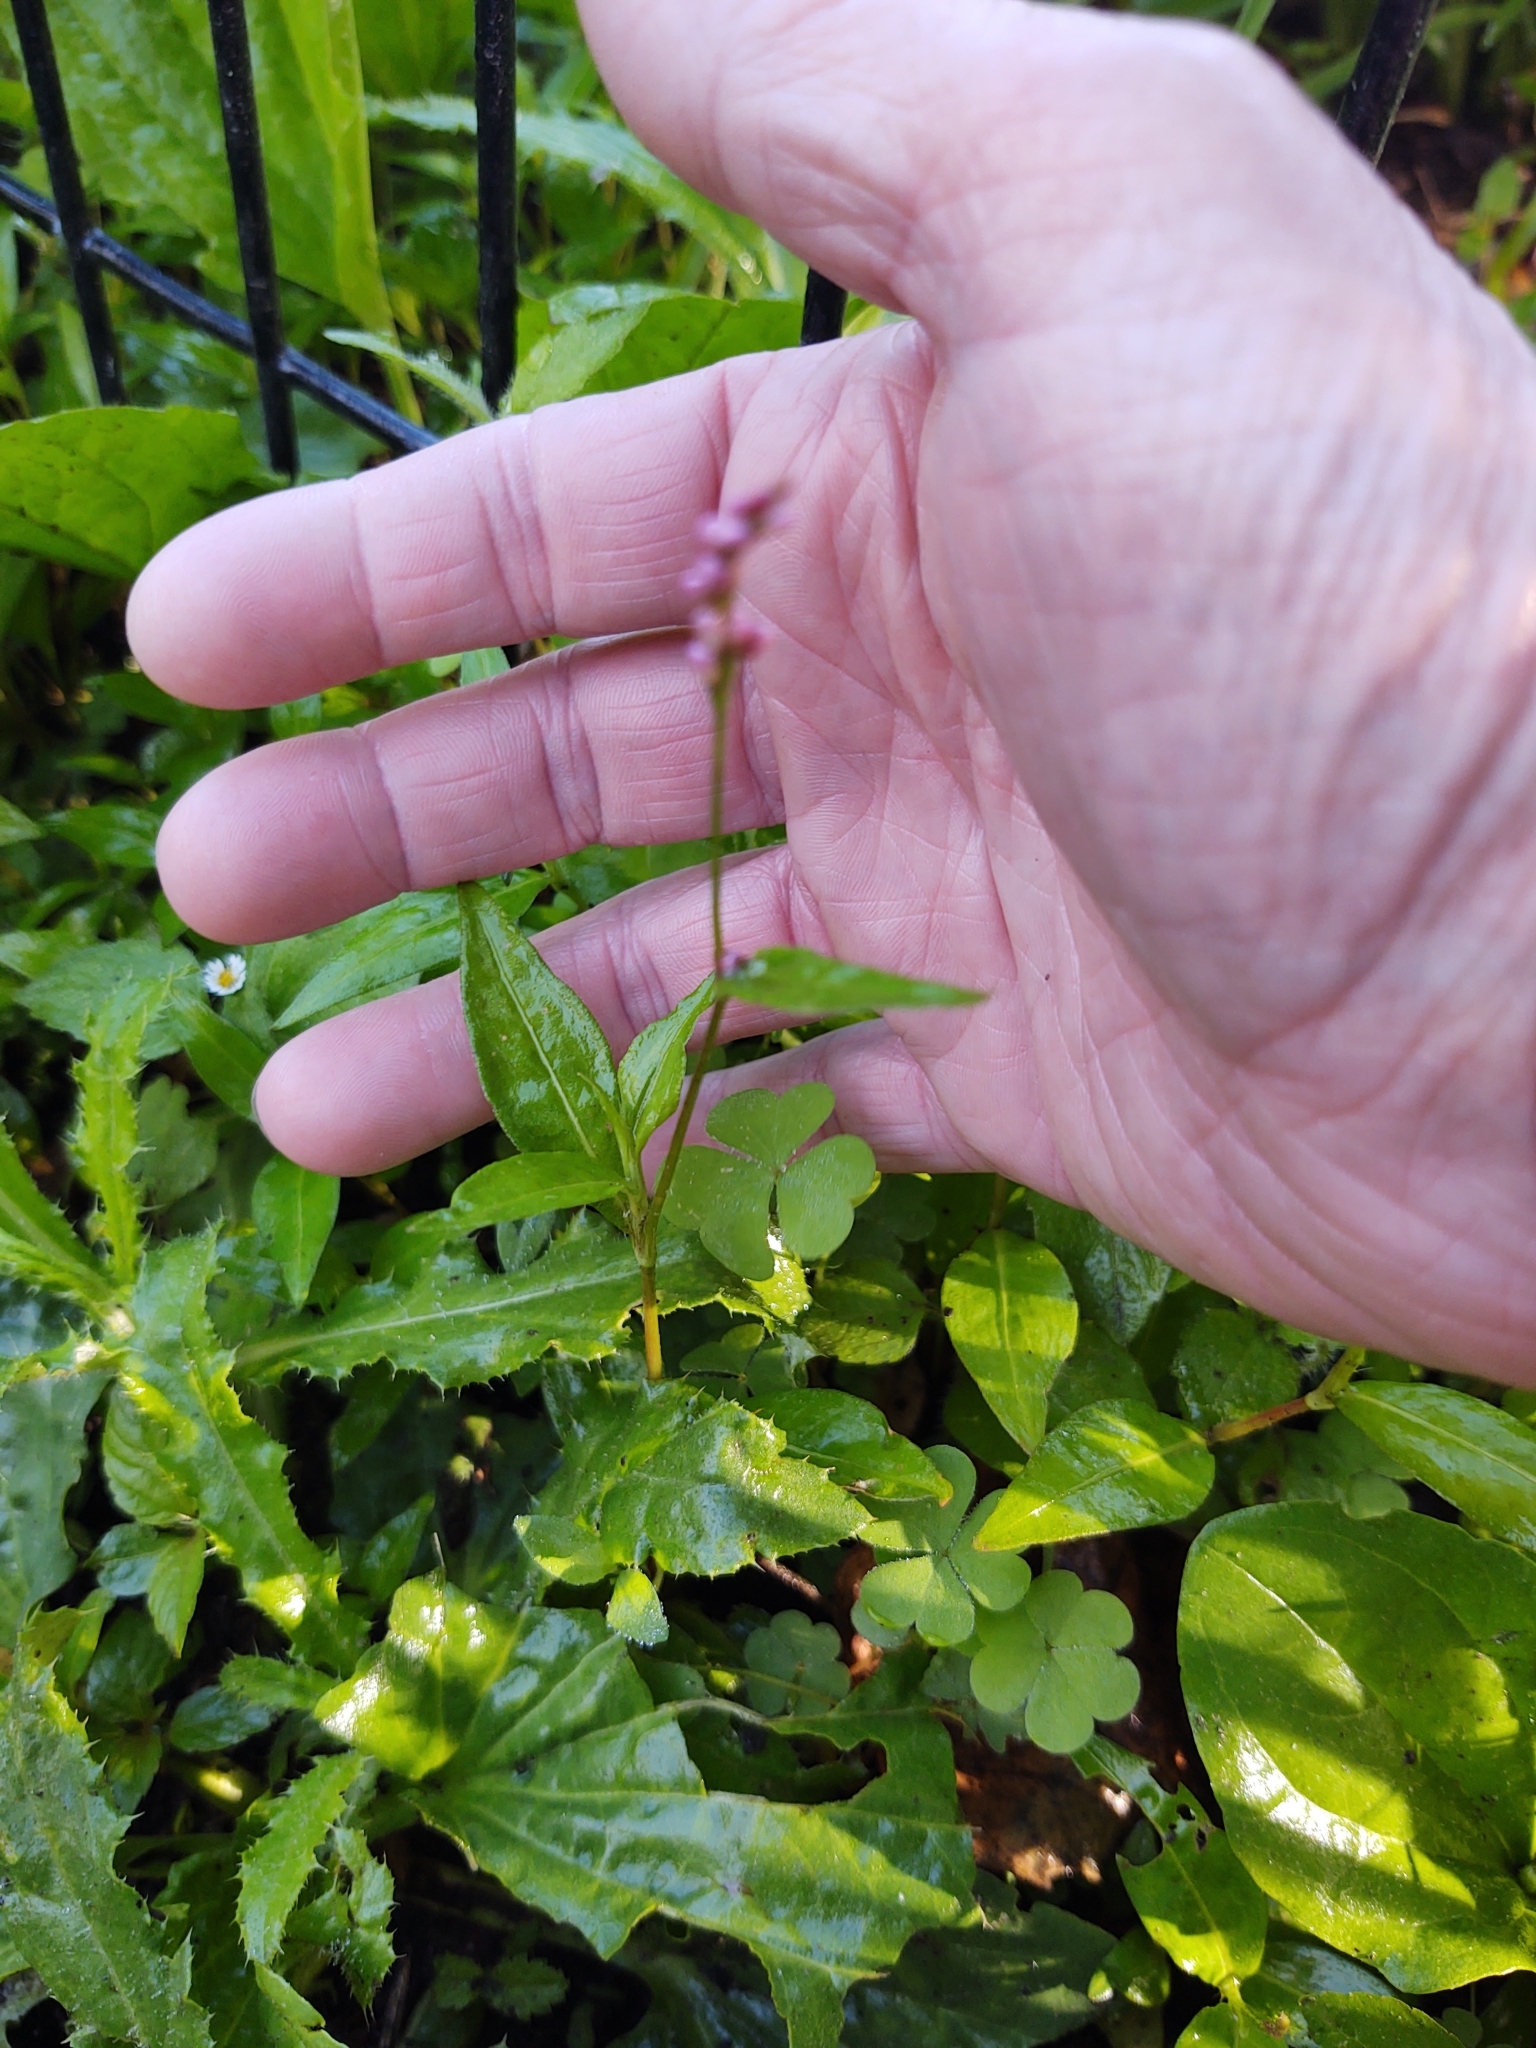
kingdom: Plantae
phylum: Tracheophyta
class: Magnoliopsida
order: Caryophyllales
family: Polygonaceae
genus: Persicaria
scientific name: Persicaria longiseta
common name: Bristly lady's-thumb
